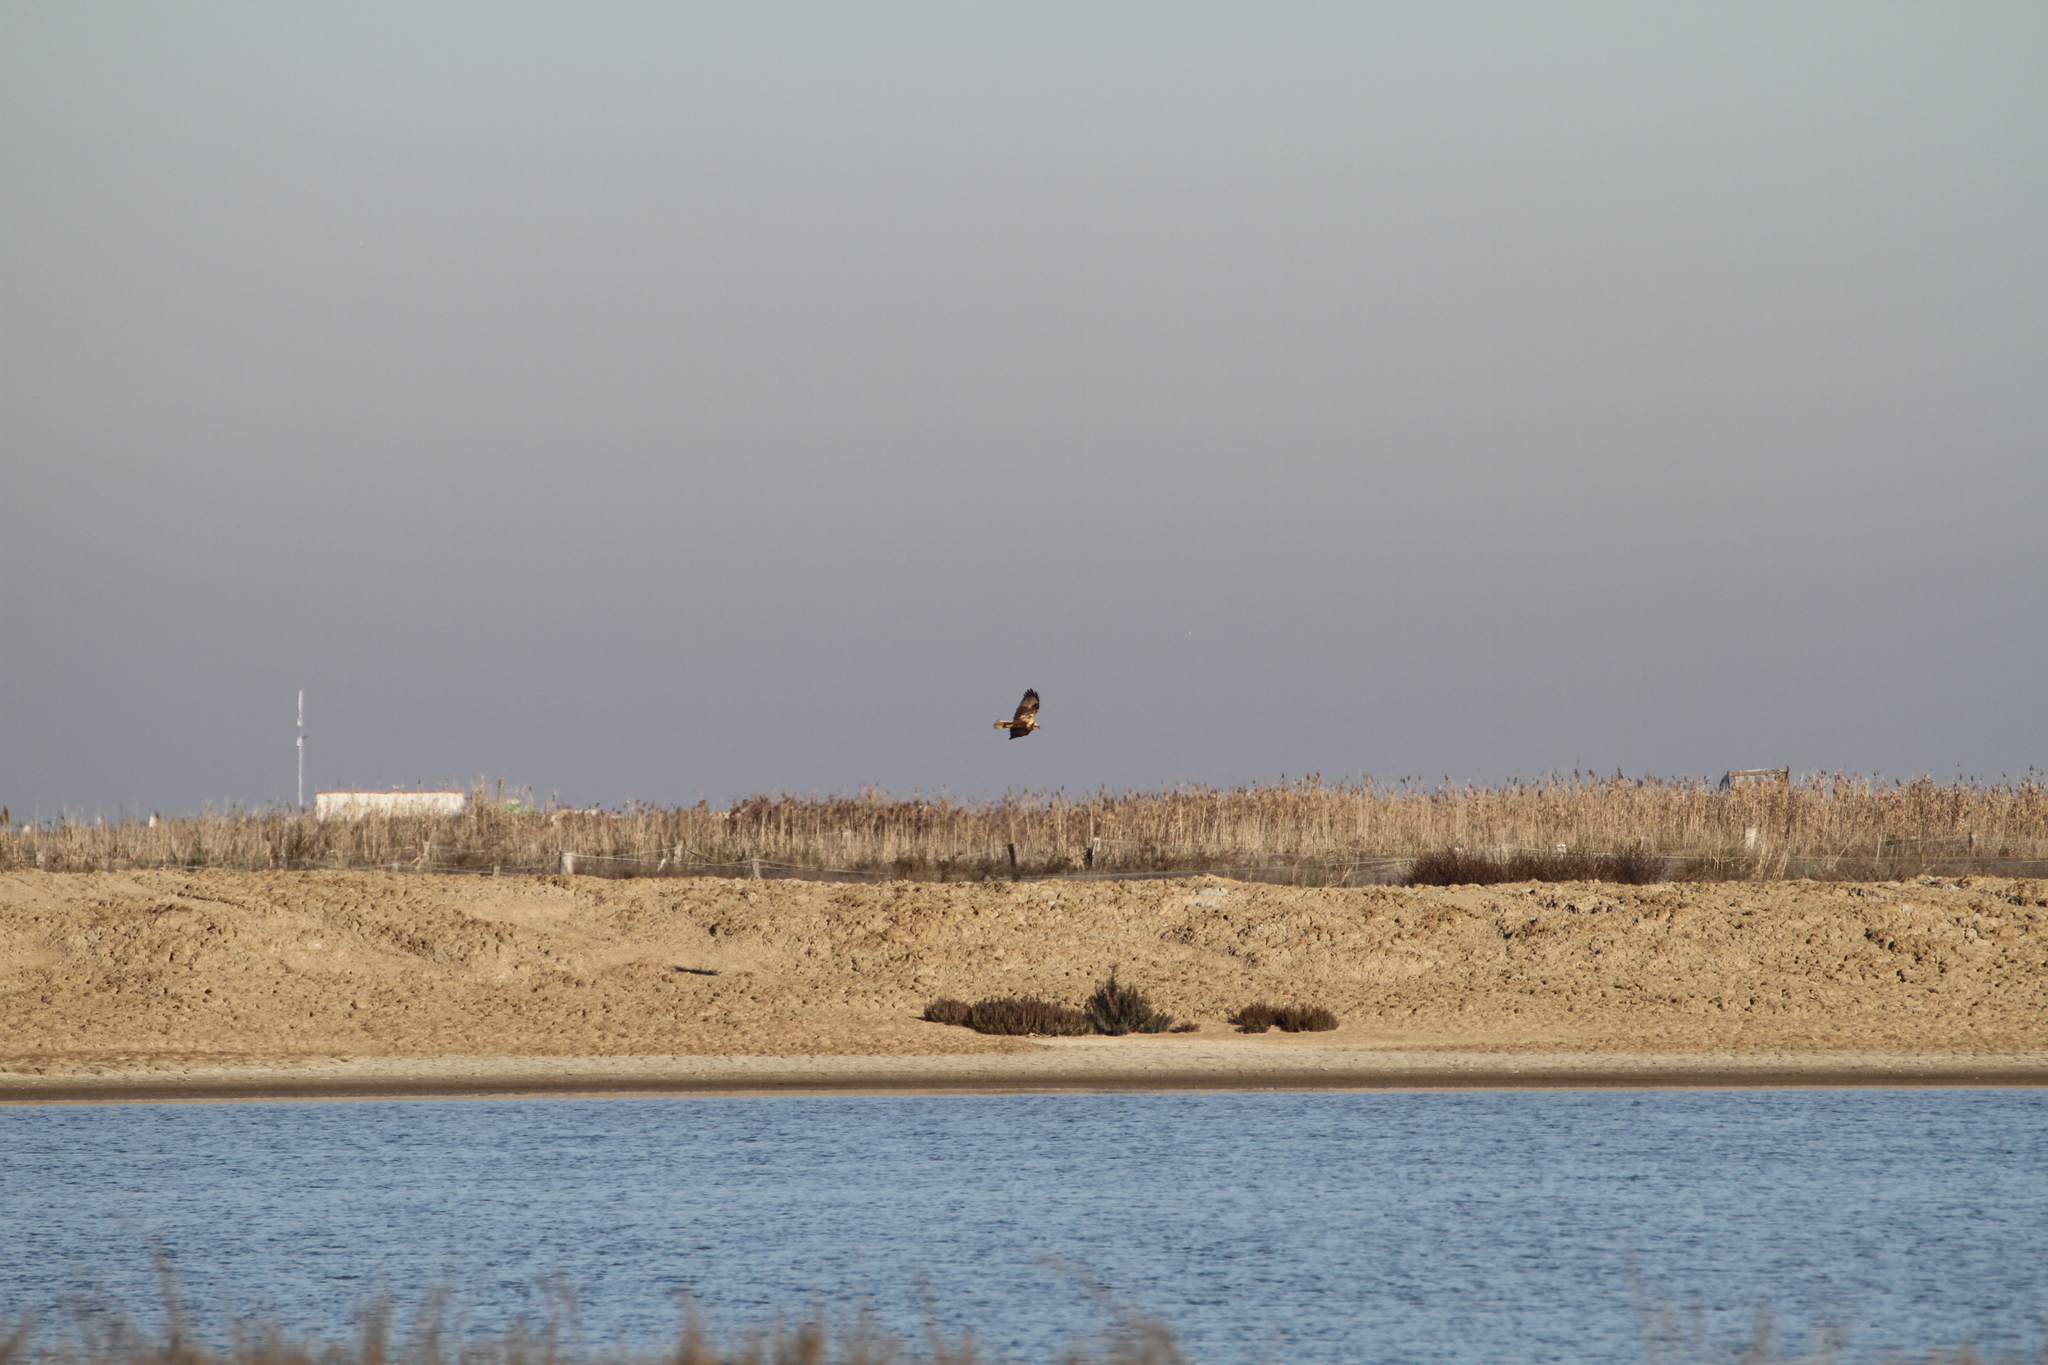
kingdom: Animalia
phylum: Chordata
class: Aves
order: Accipitriformes
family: Accipitridae
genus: Circus
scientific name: Circus aeruginosus
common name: Western marsh harrier
